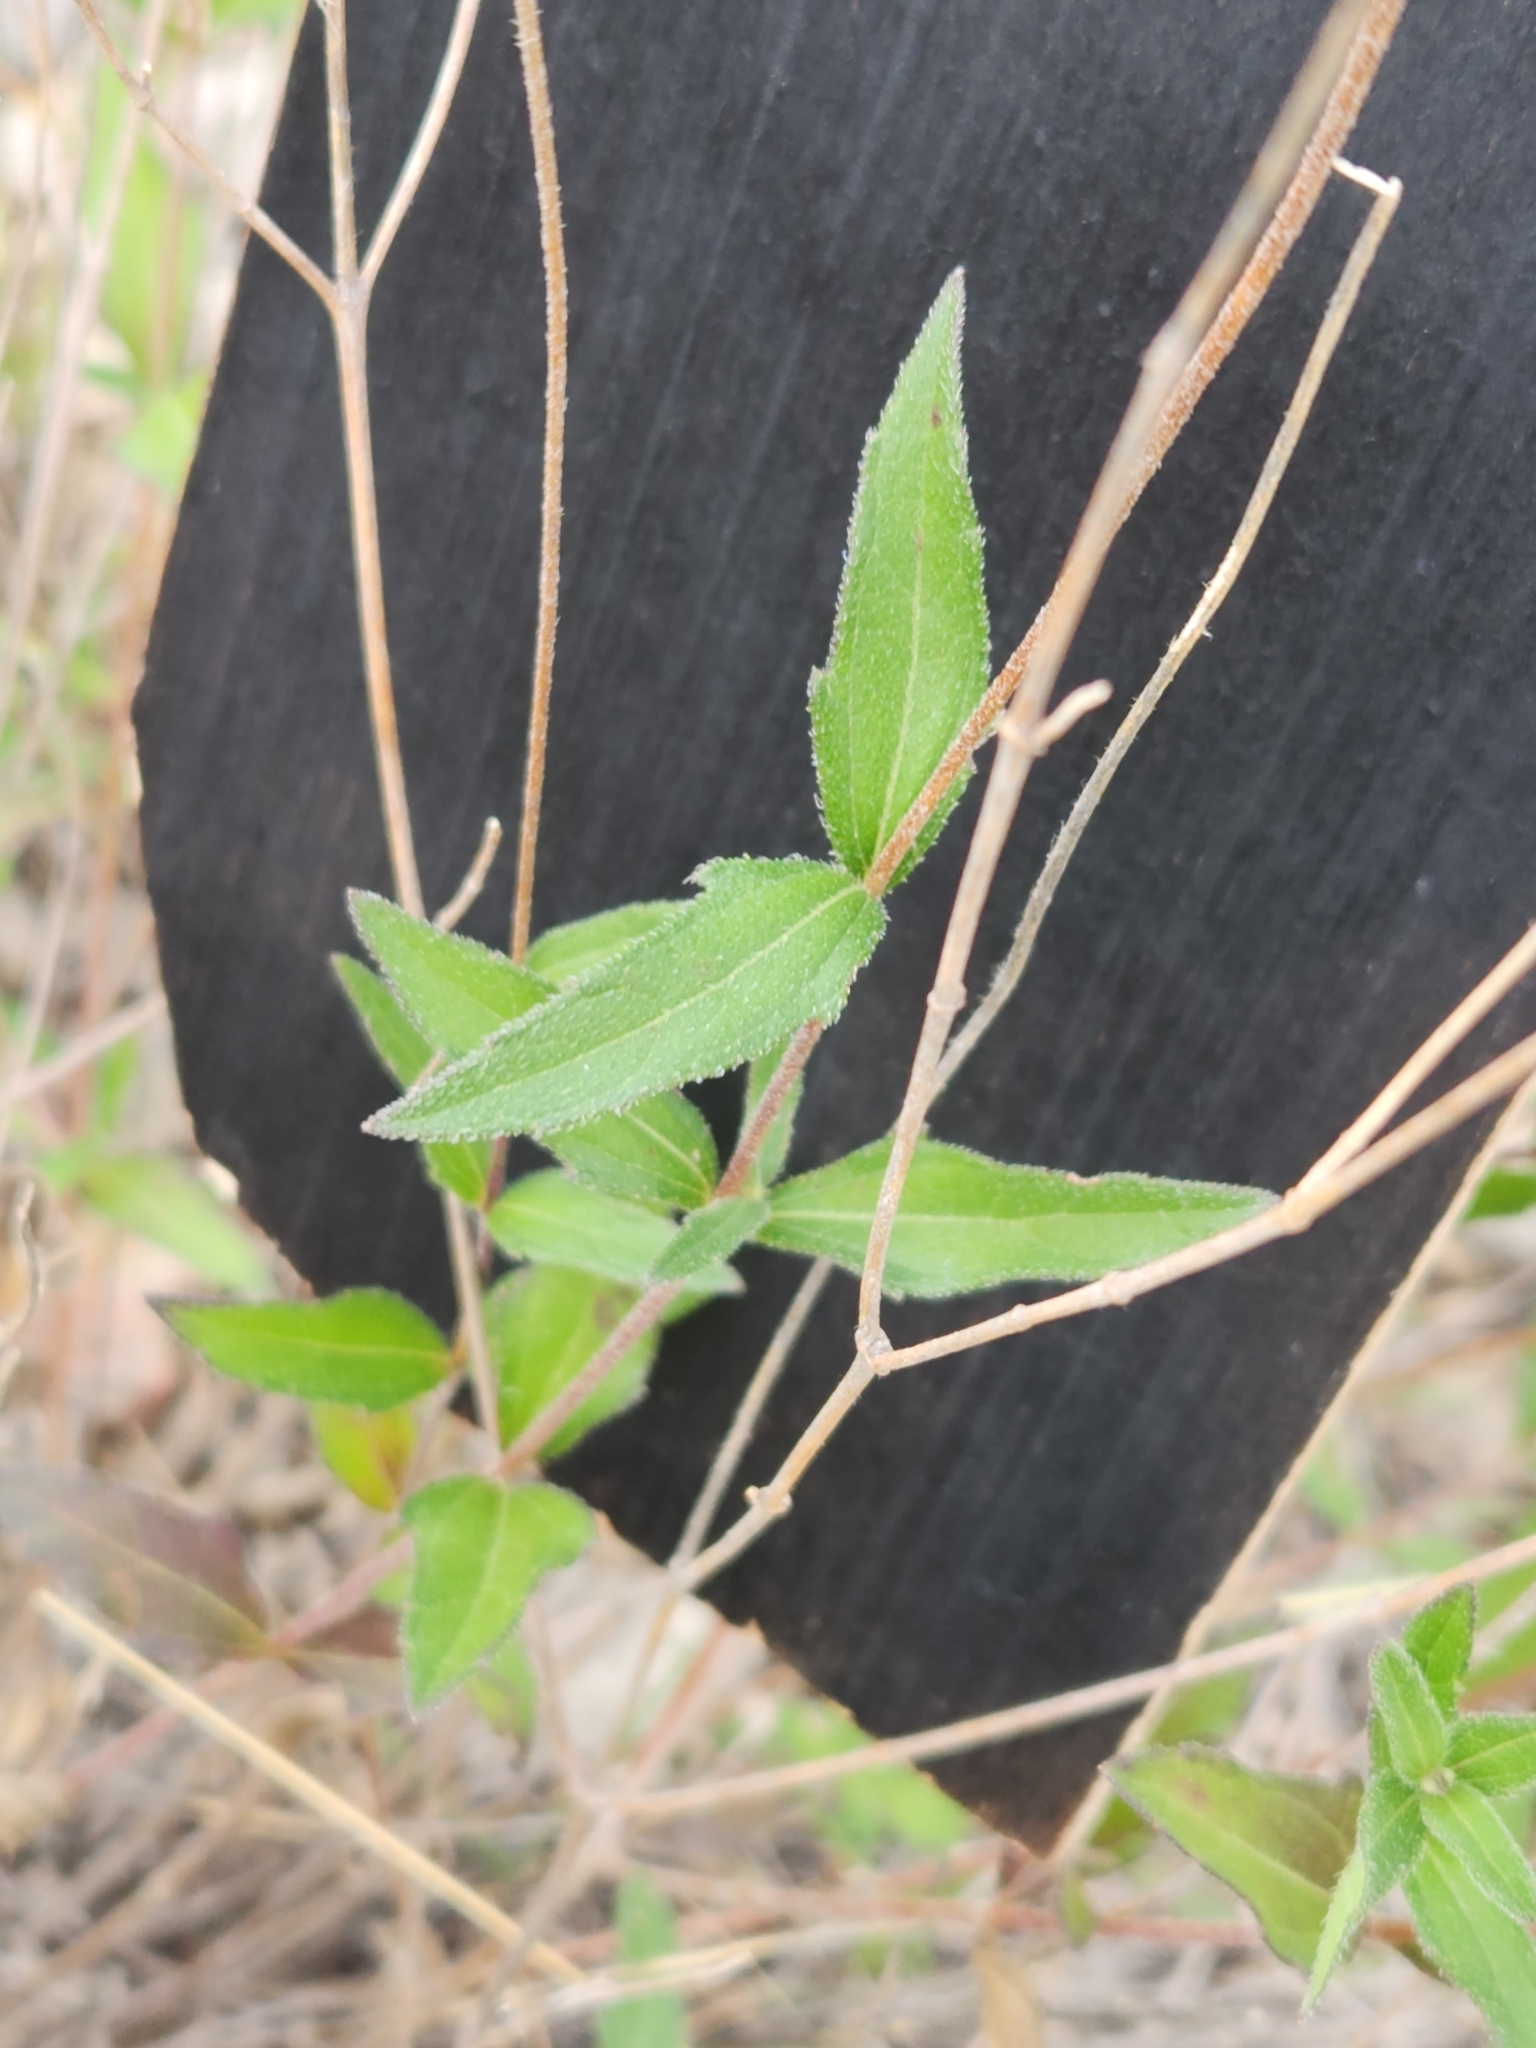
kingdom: Plantae
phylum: Tracheophyta
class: Magnoliopsida
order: Asterales
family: Asteraceae
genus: Wedelia
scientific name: Wedelia acapulcensis
